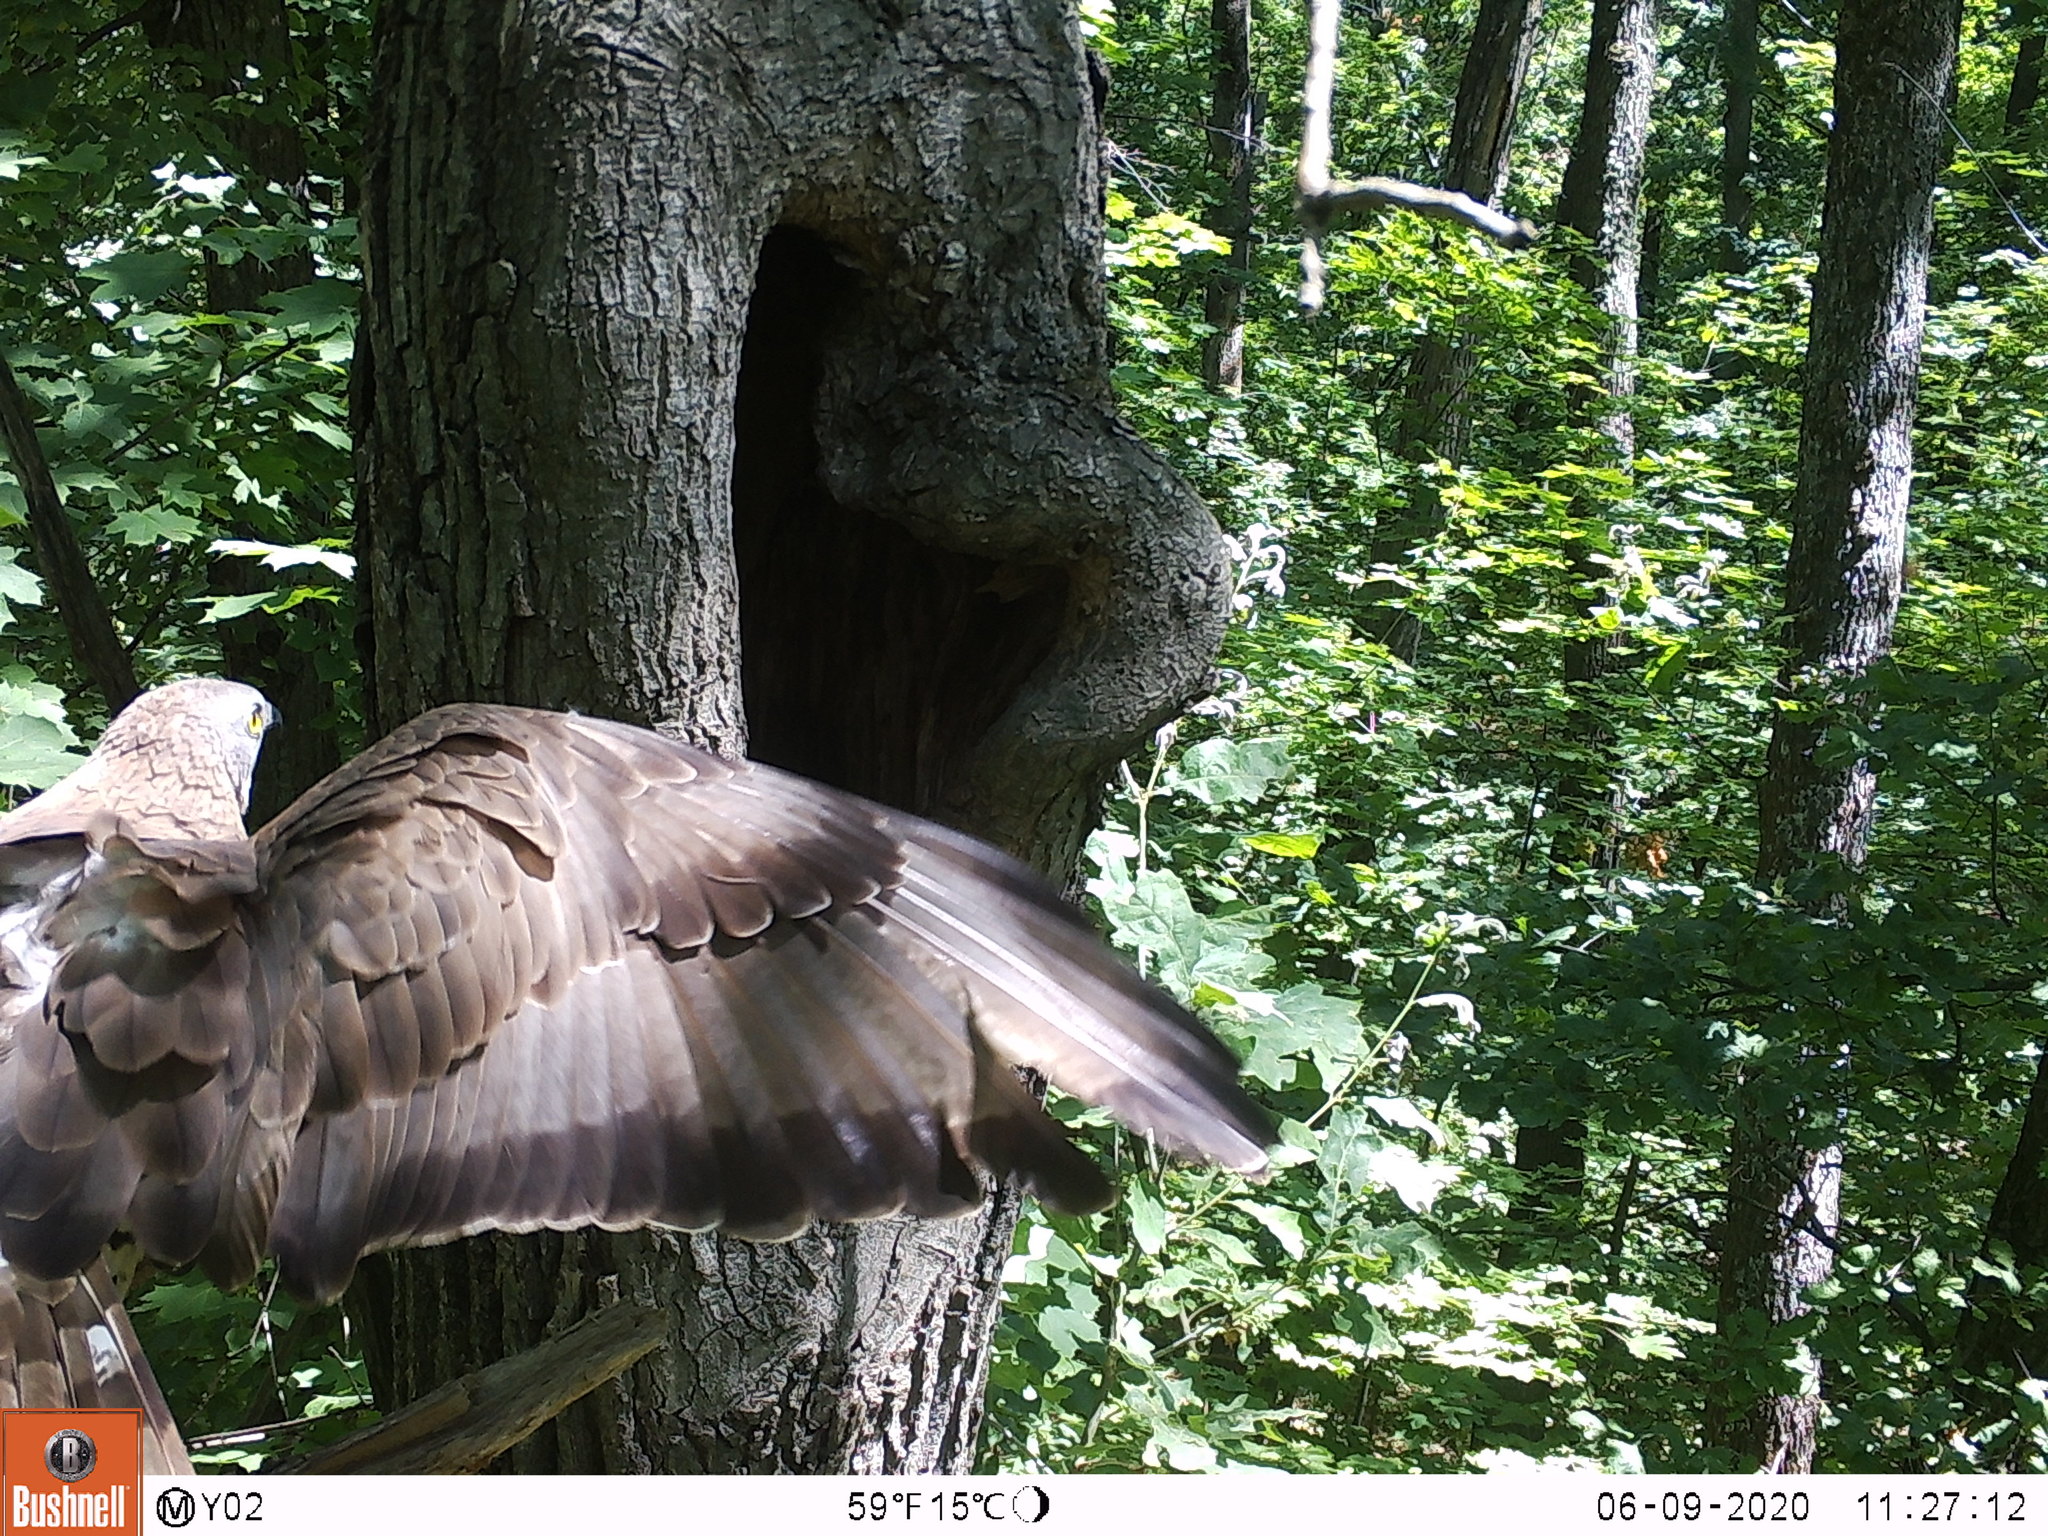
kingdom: Animalia
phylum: Chordata
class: Aves
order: Accipitriformes
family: Accipitridae
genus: Pernis
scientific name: Pernis apivorus
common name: European honey buzzard
